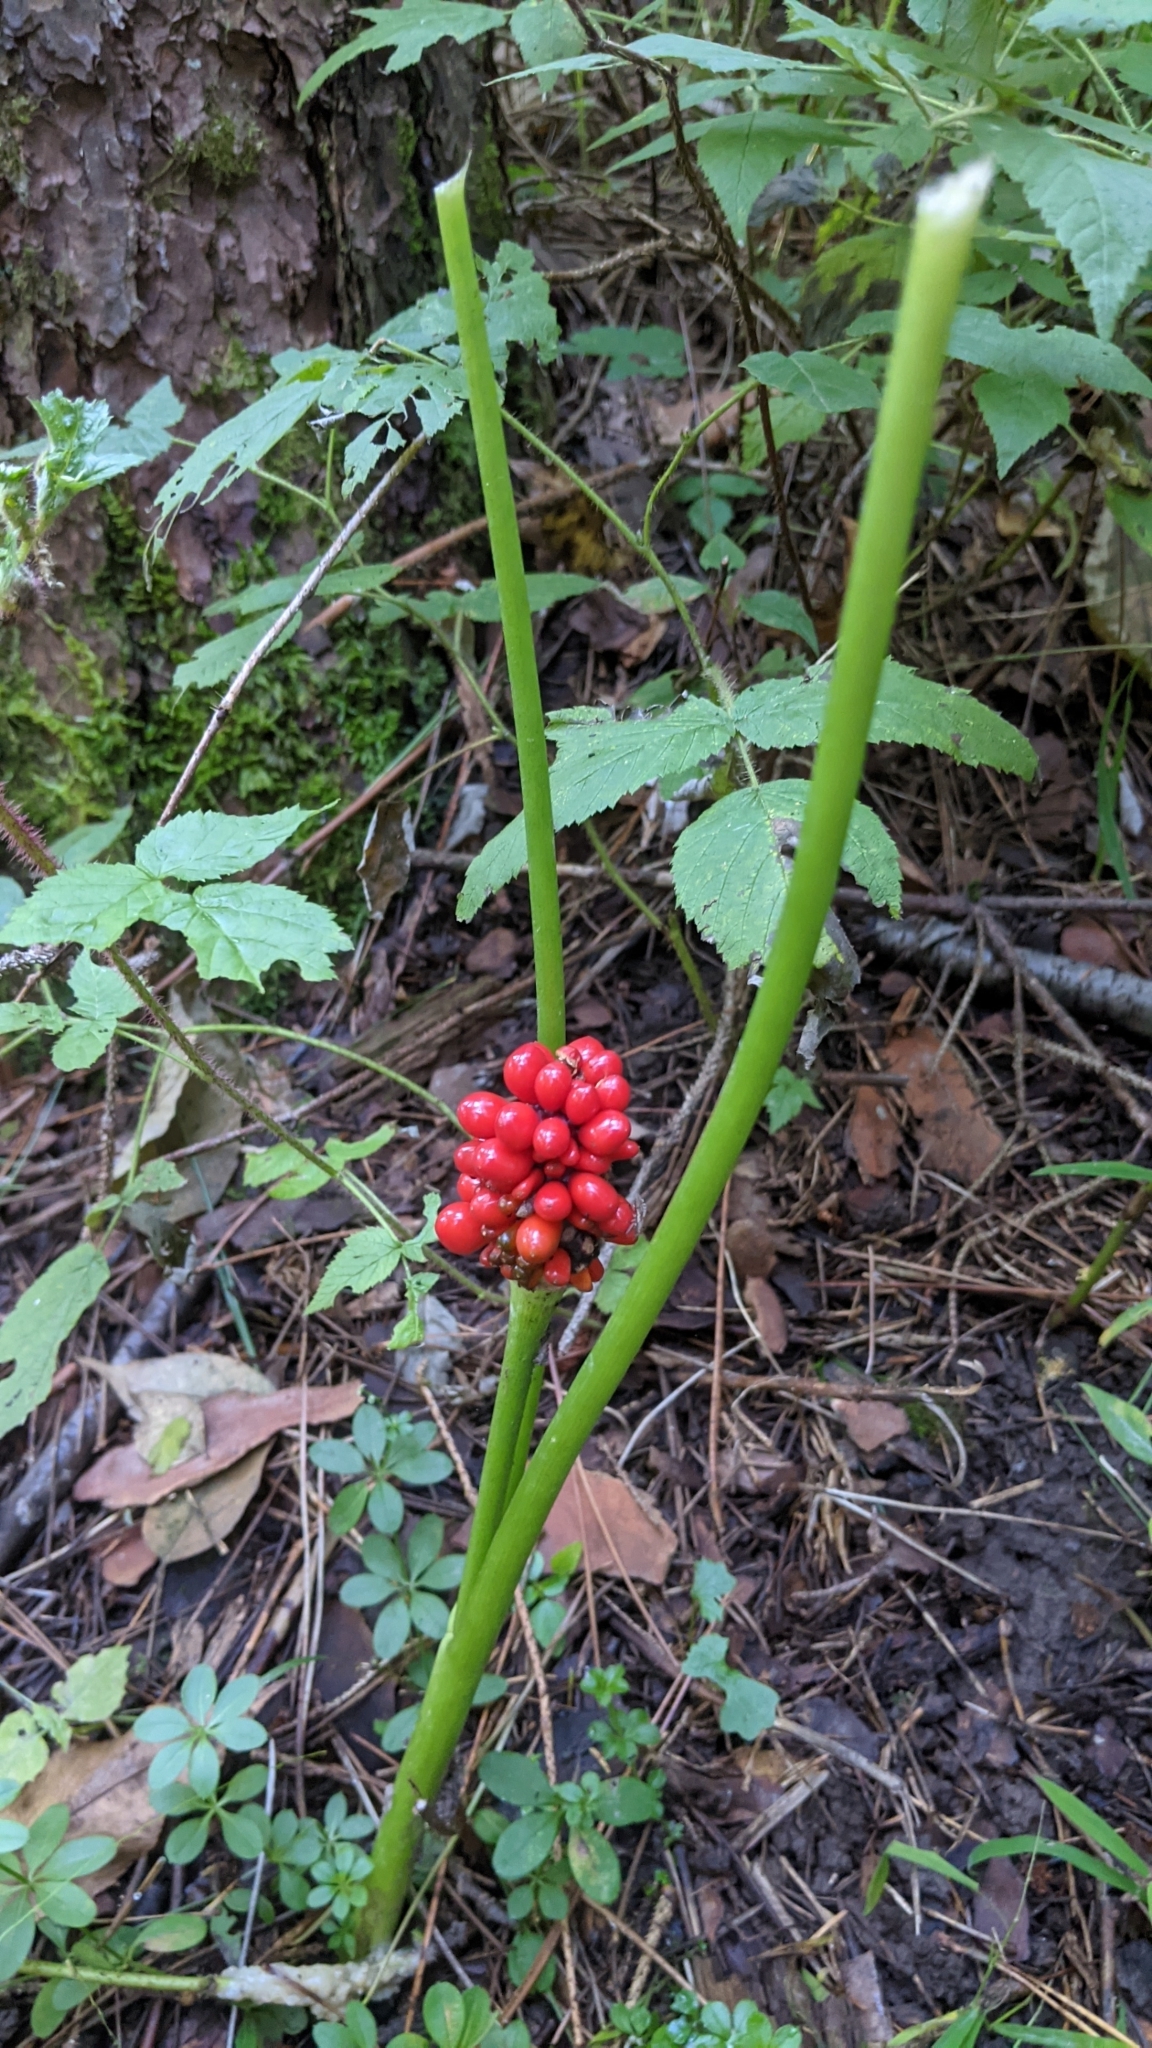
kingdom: Plantae
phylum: Tracheophyta
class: Liliopsida
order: Alismatales
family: Araceae
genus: Arisaema
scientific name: Arisaema triphyllum
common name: Jack-in-the-pulpit
